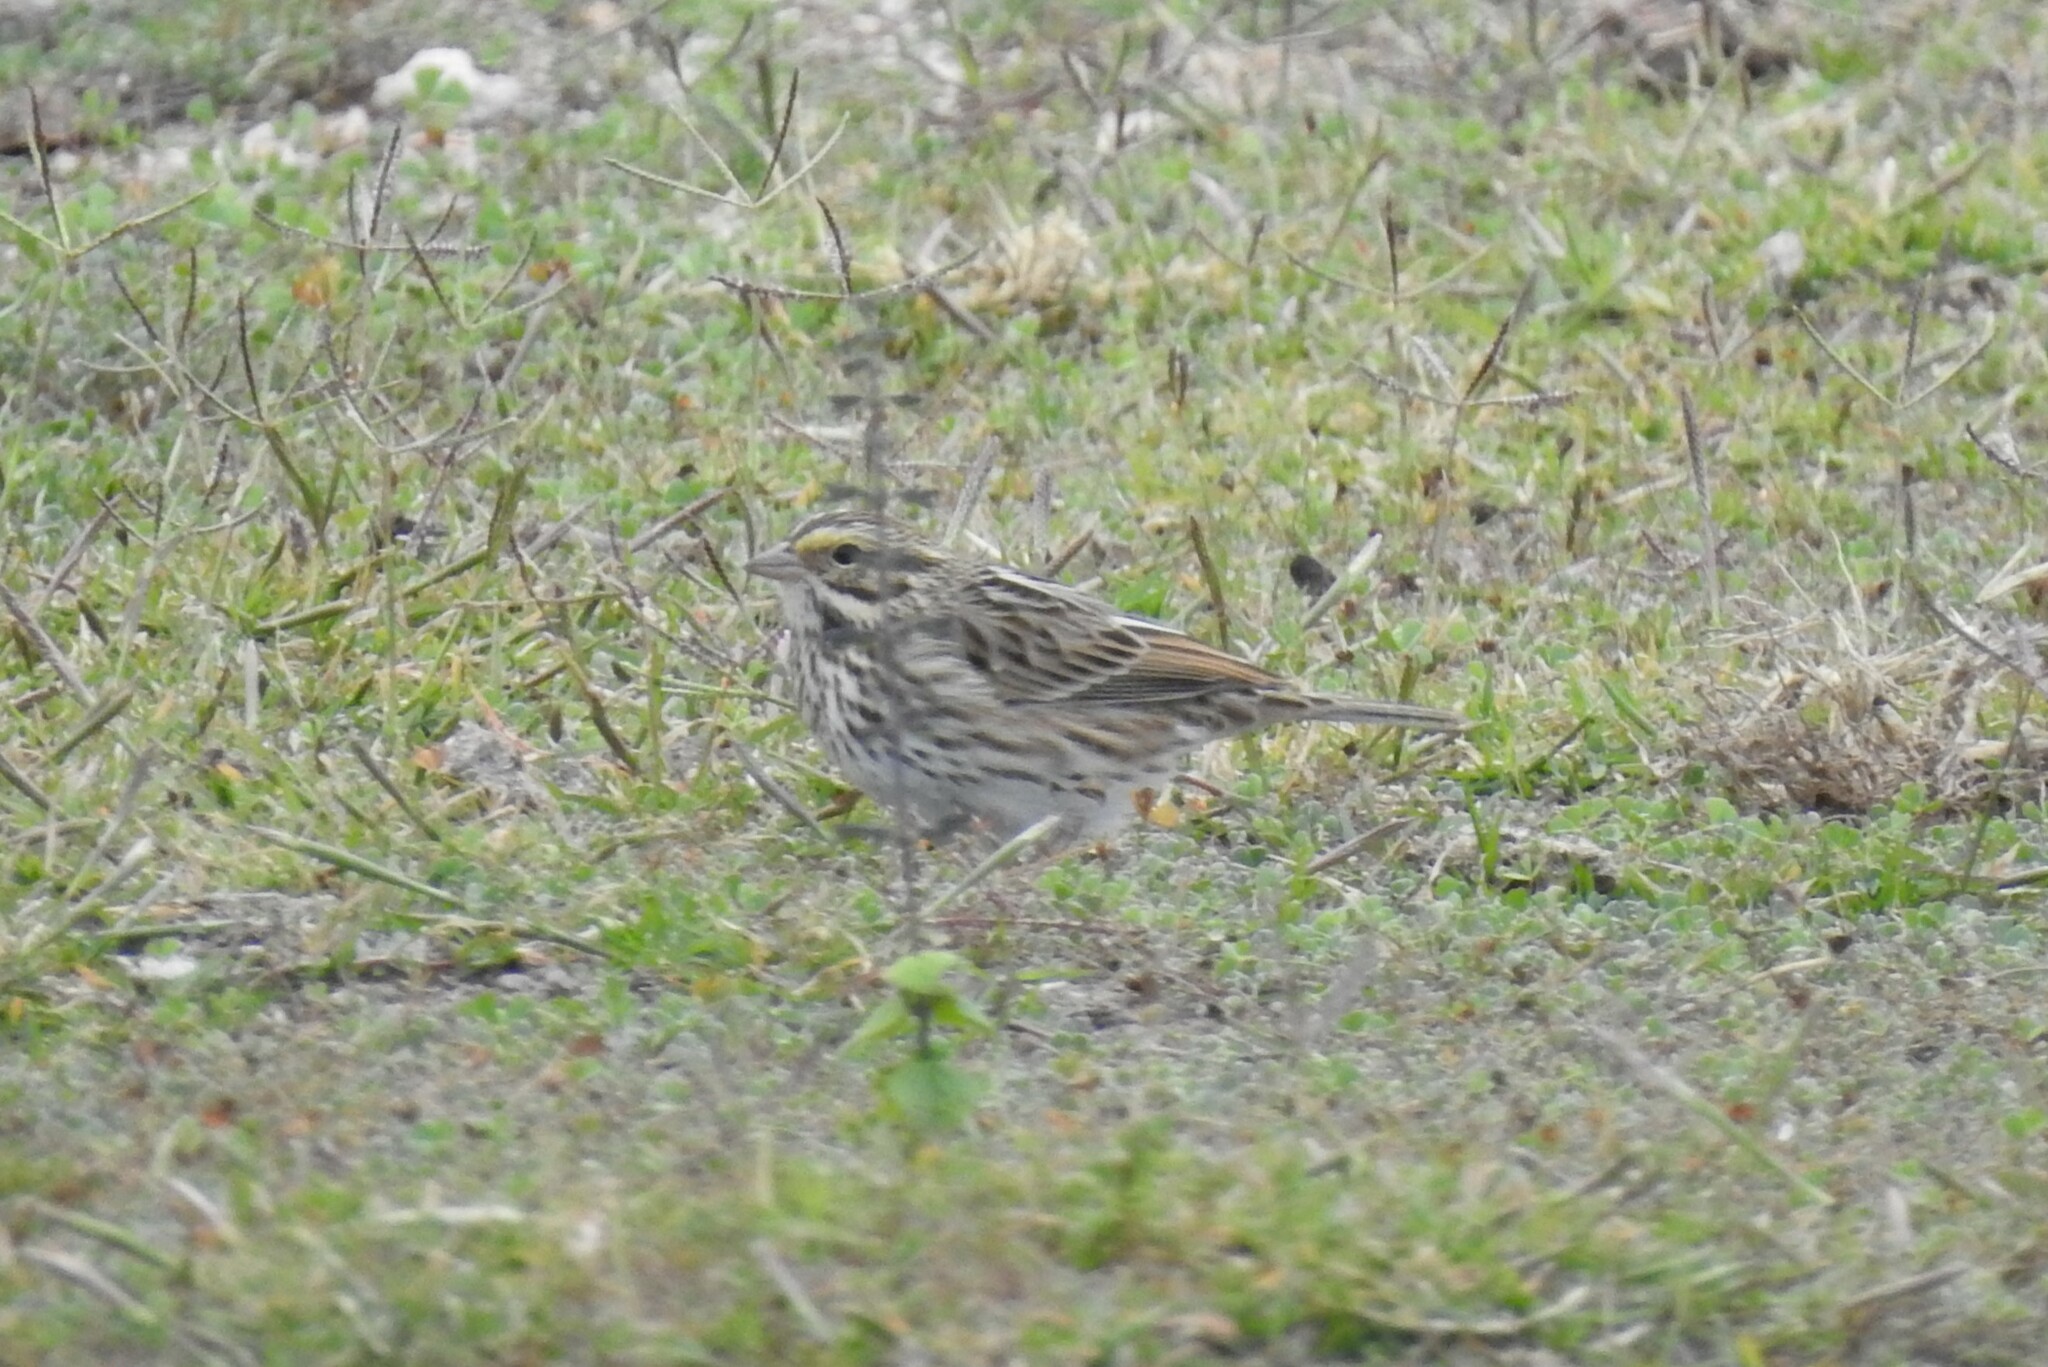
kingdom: Animalia
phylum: Chordata
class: Aves
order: Passeriformes
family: Passerellidae
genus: Passerculus
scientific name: Passerculus sandwichensis
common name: Savannah sparrow
